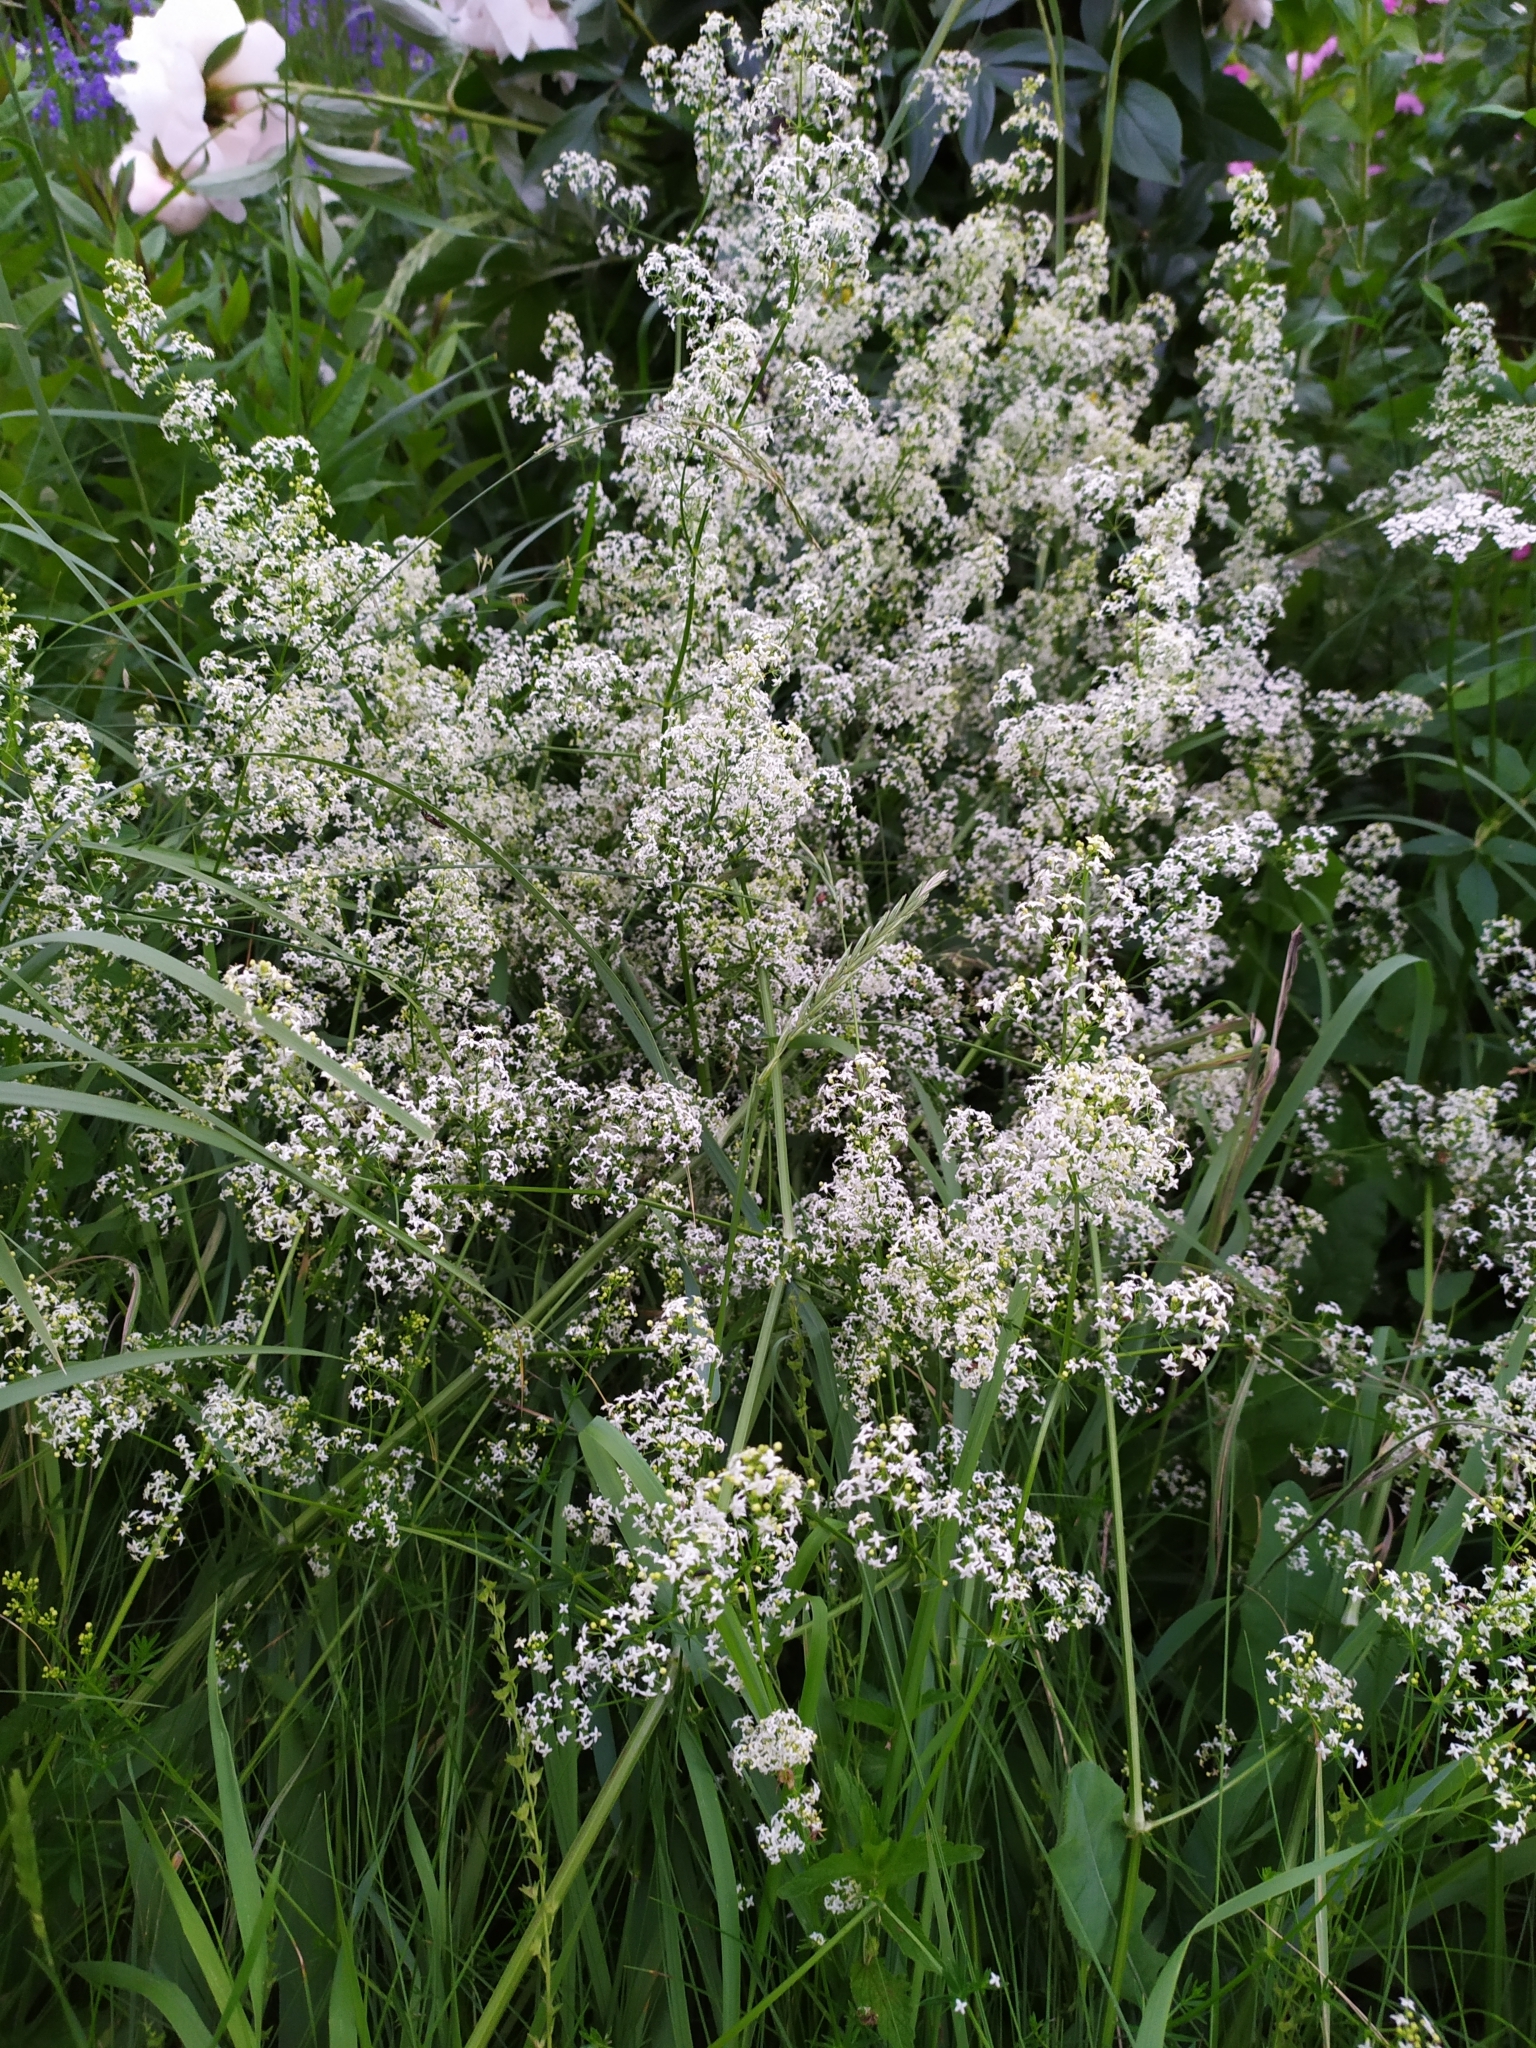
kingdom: Plantae
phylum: Tracheophyta
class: Magnoliopsida
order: Gentianales
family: Rubiaceae
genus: Galium
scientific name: Galium mollugo
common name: Hedge bedstraw
